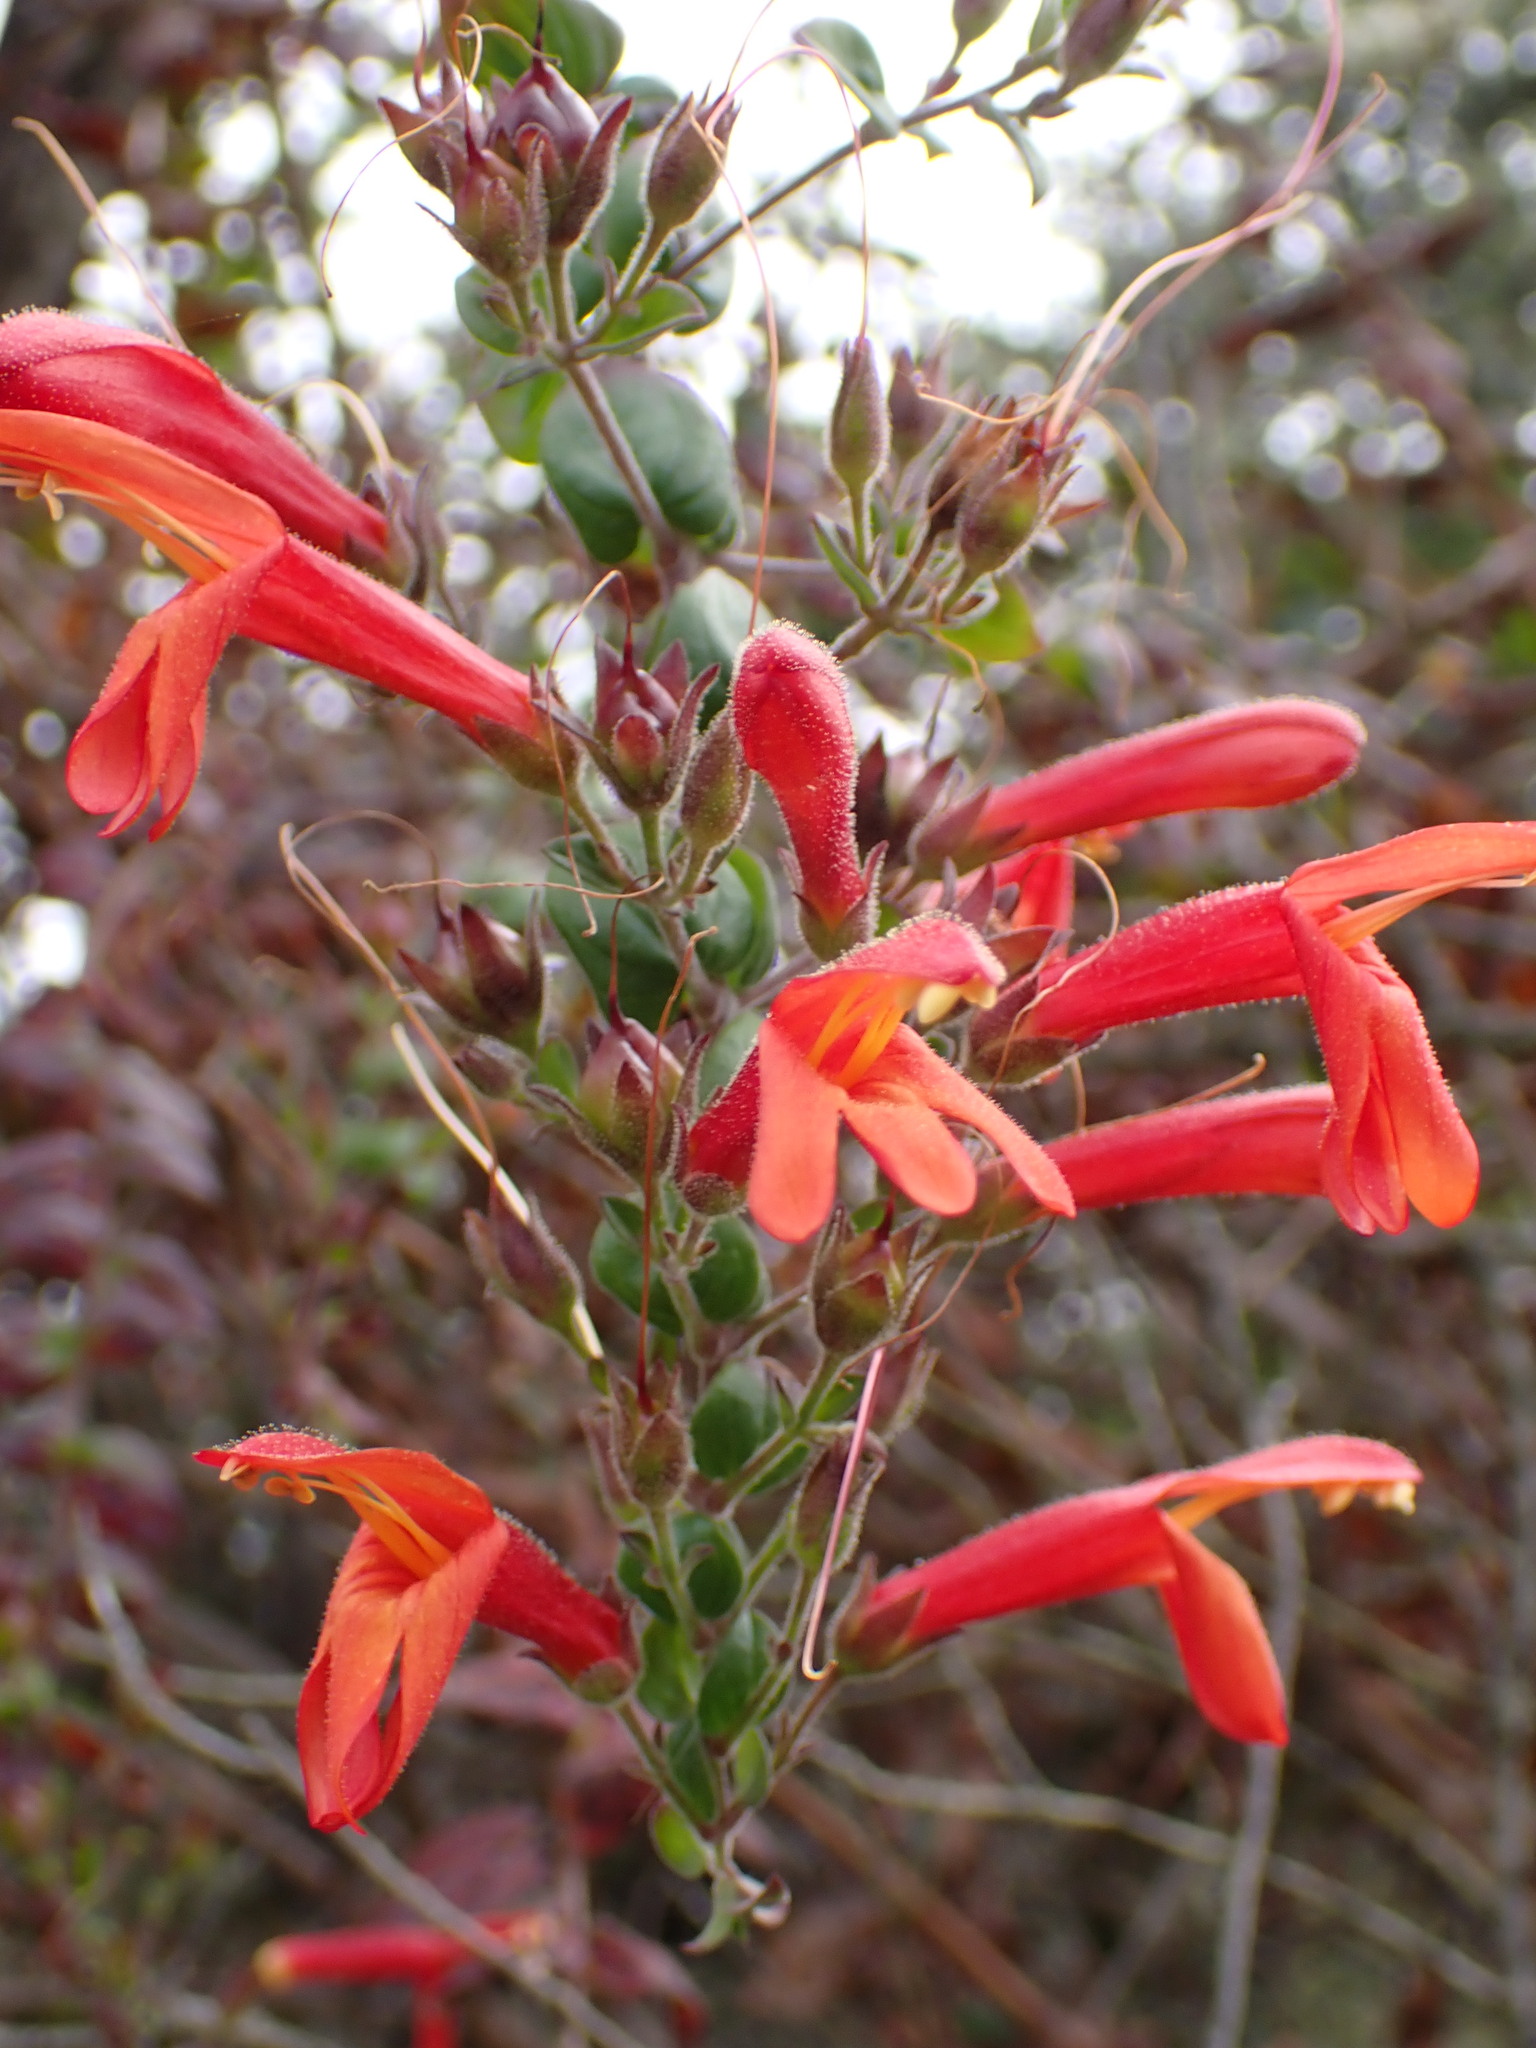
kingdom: Plantae
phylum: Tracheophyta
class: Magnoliopsida
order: Lamiales
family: Plantaginaceae
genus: Keckiella
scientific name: Keckiella cordifolia
